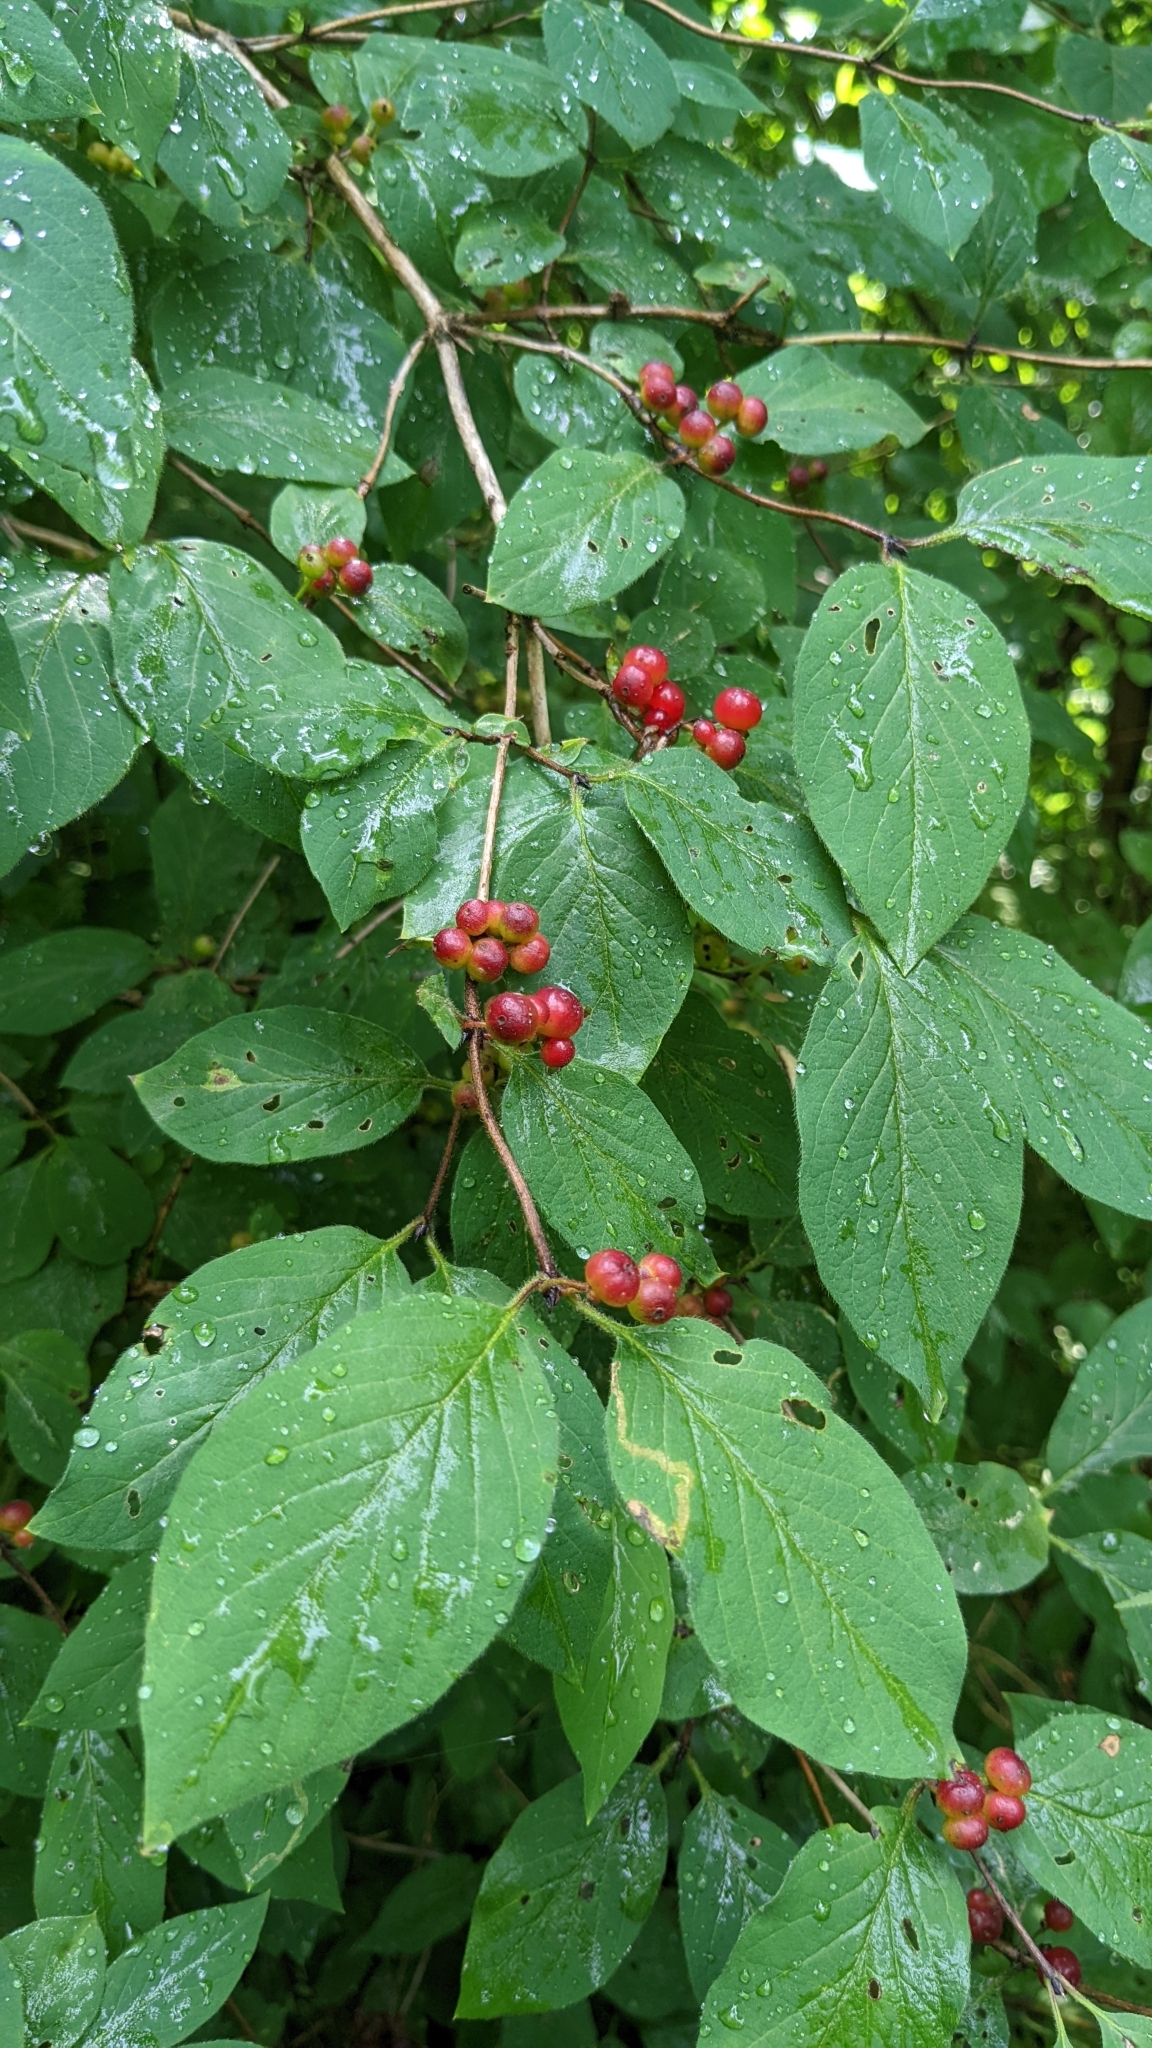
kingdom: Plantae
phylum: Tracheophyta
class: Magnoliopsida
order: Dipsacales
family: Caprifoliaceae
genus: Lonicera
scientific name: Lonicera xylosteum
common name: Fly honeysuckle
